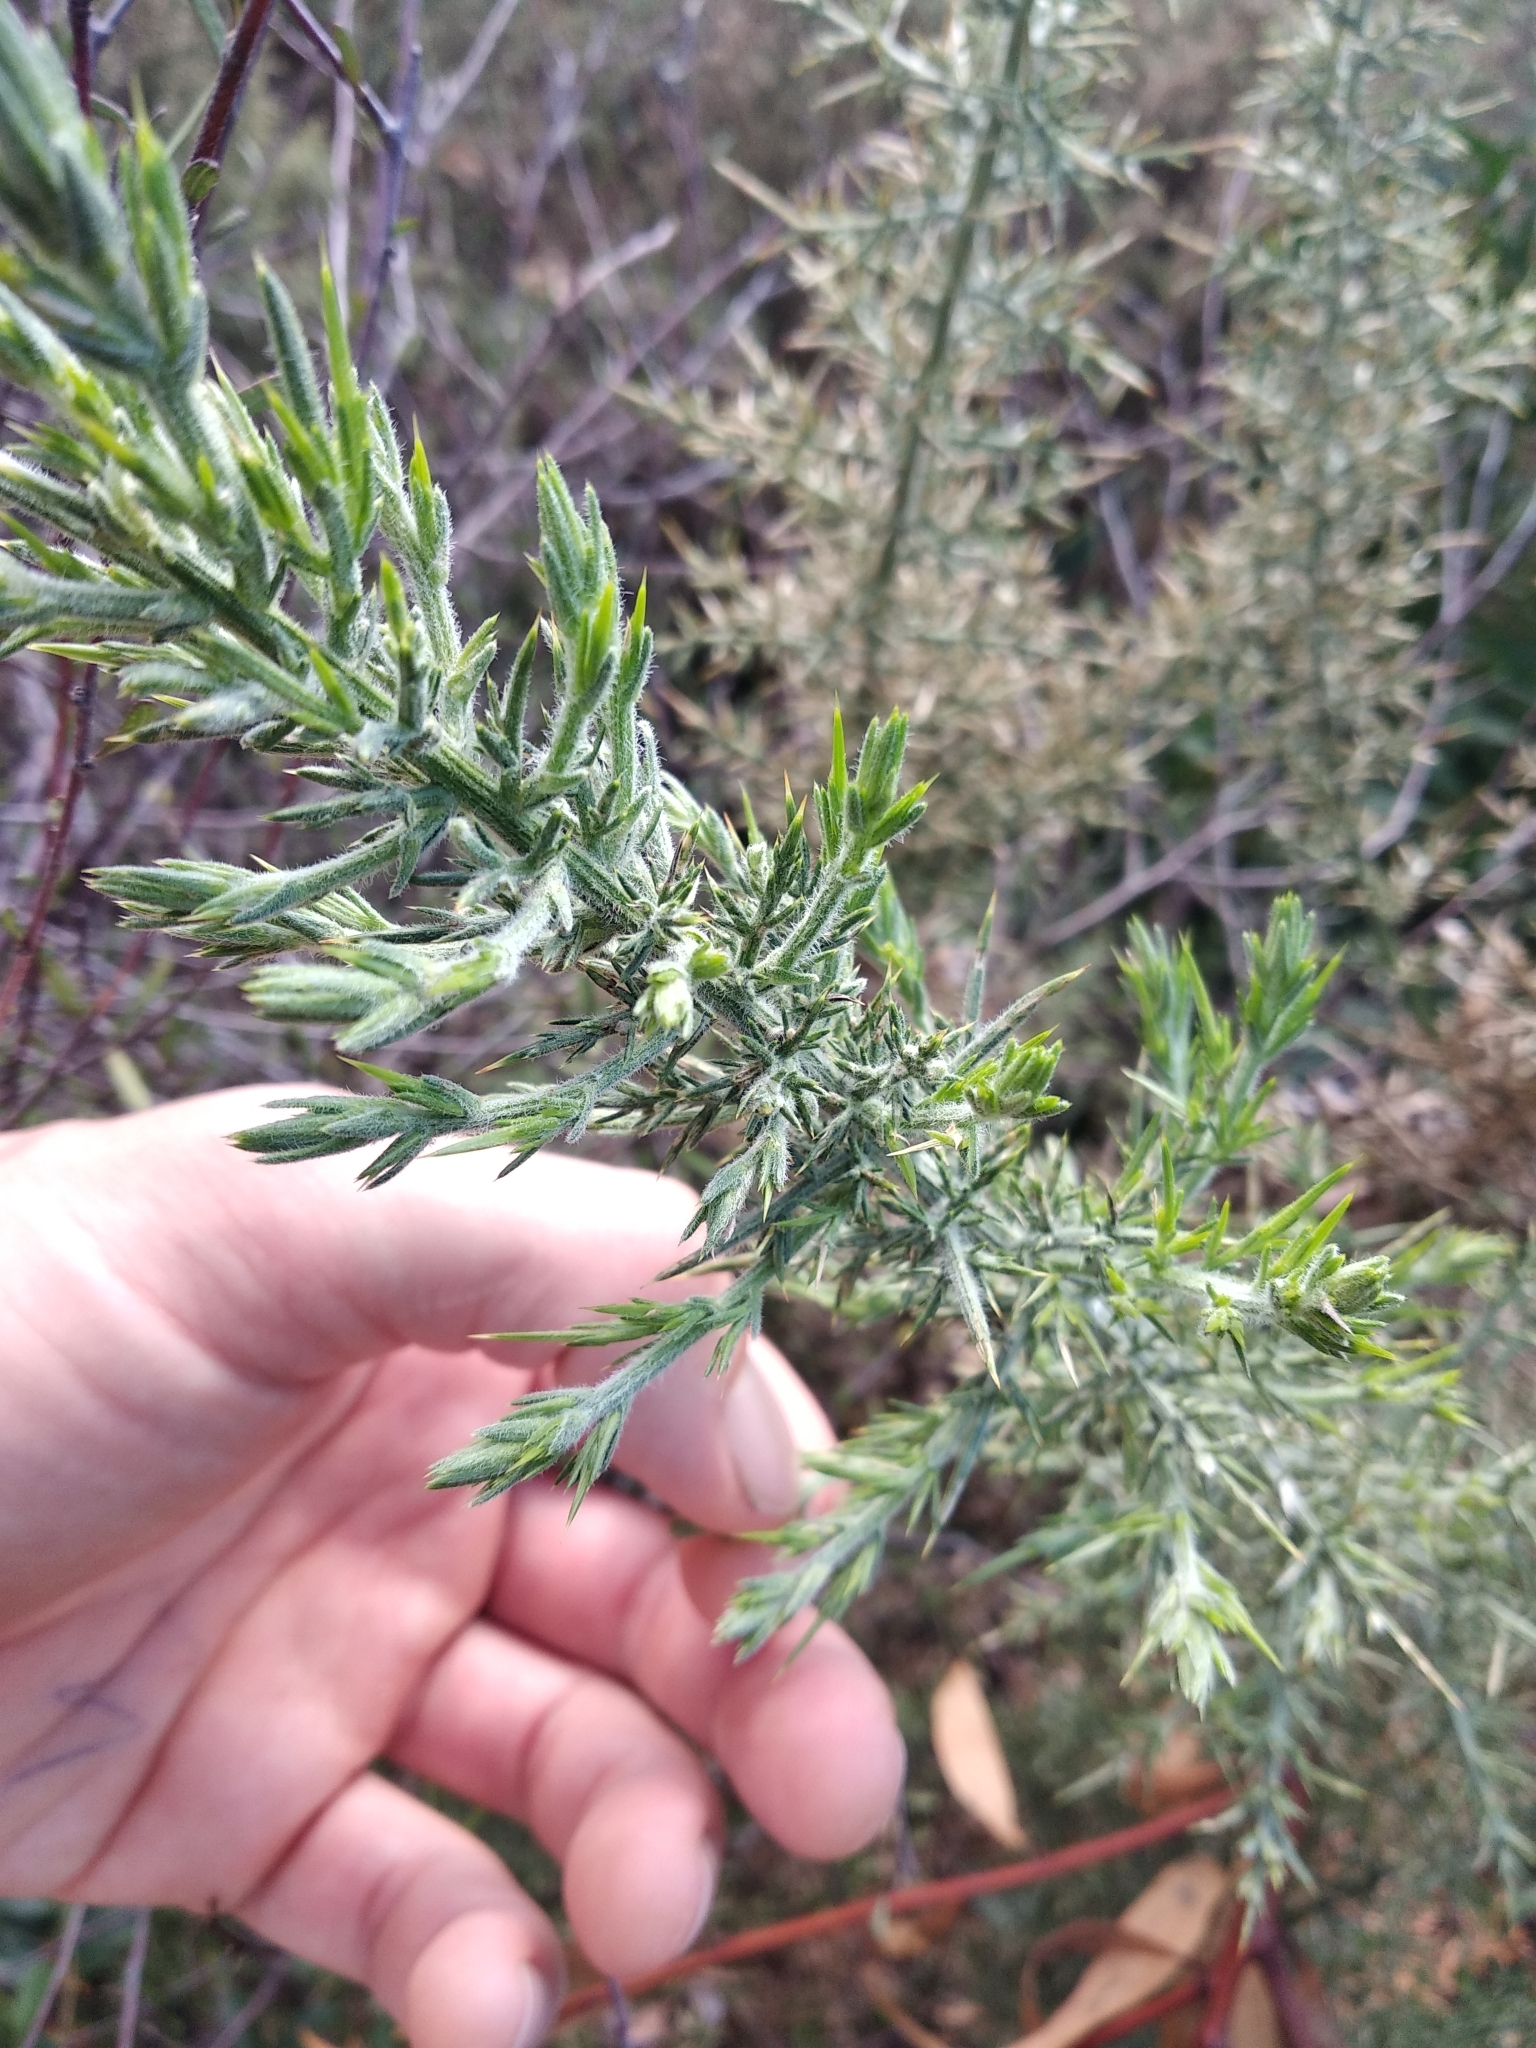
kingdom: Plantae
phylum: Tracheophyta
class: Magnoliopsida
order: Fabales
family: Fabaceae
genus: Ulex
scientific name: Ulex europaeus
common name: Common gorse
